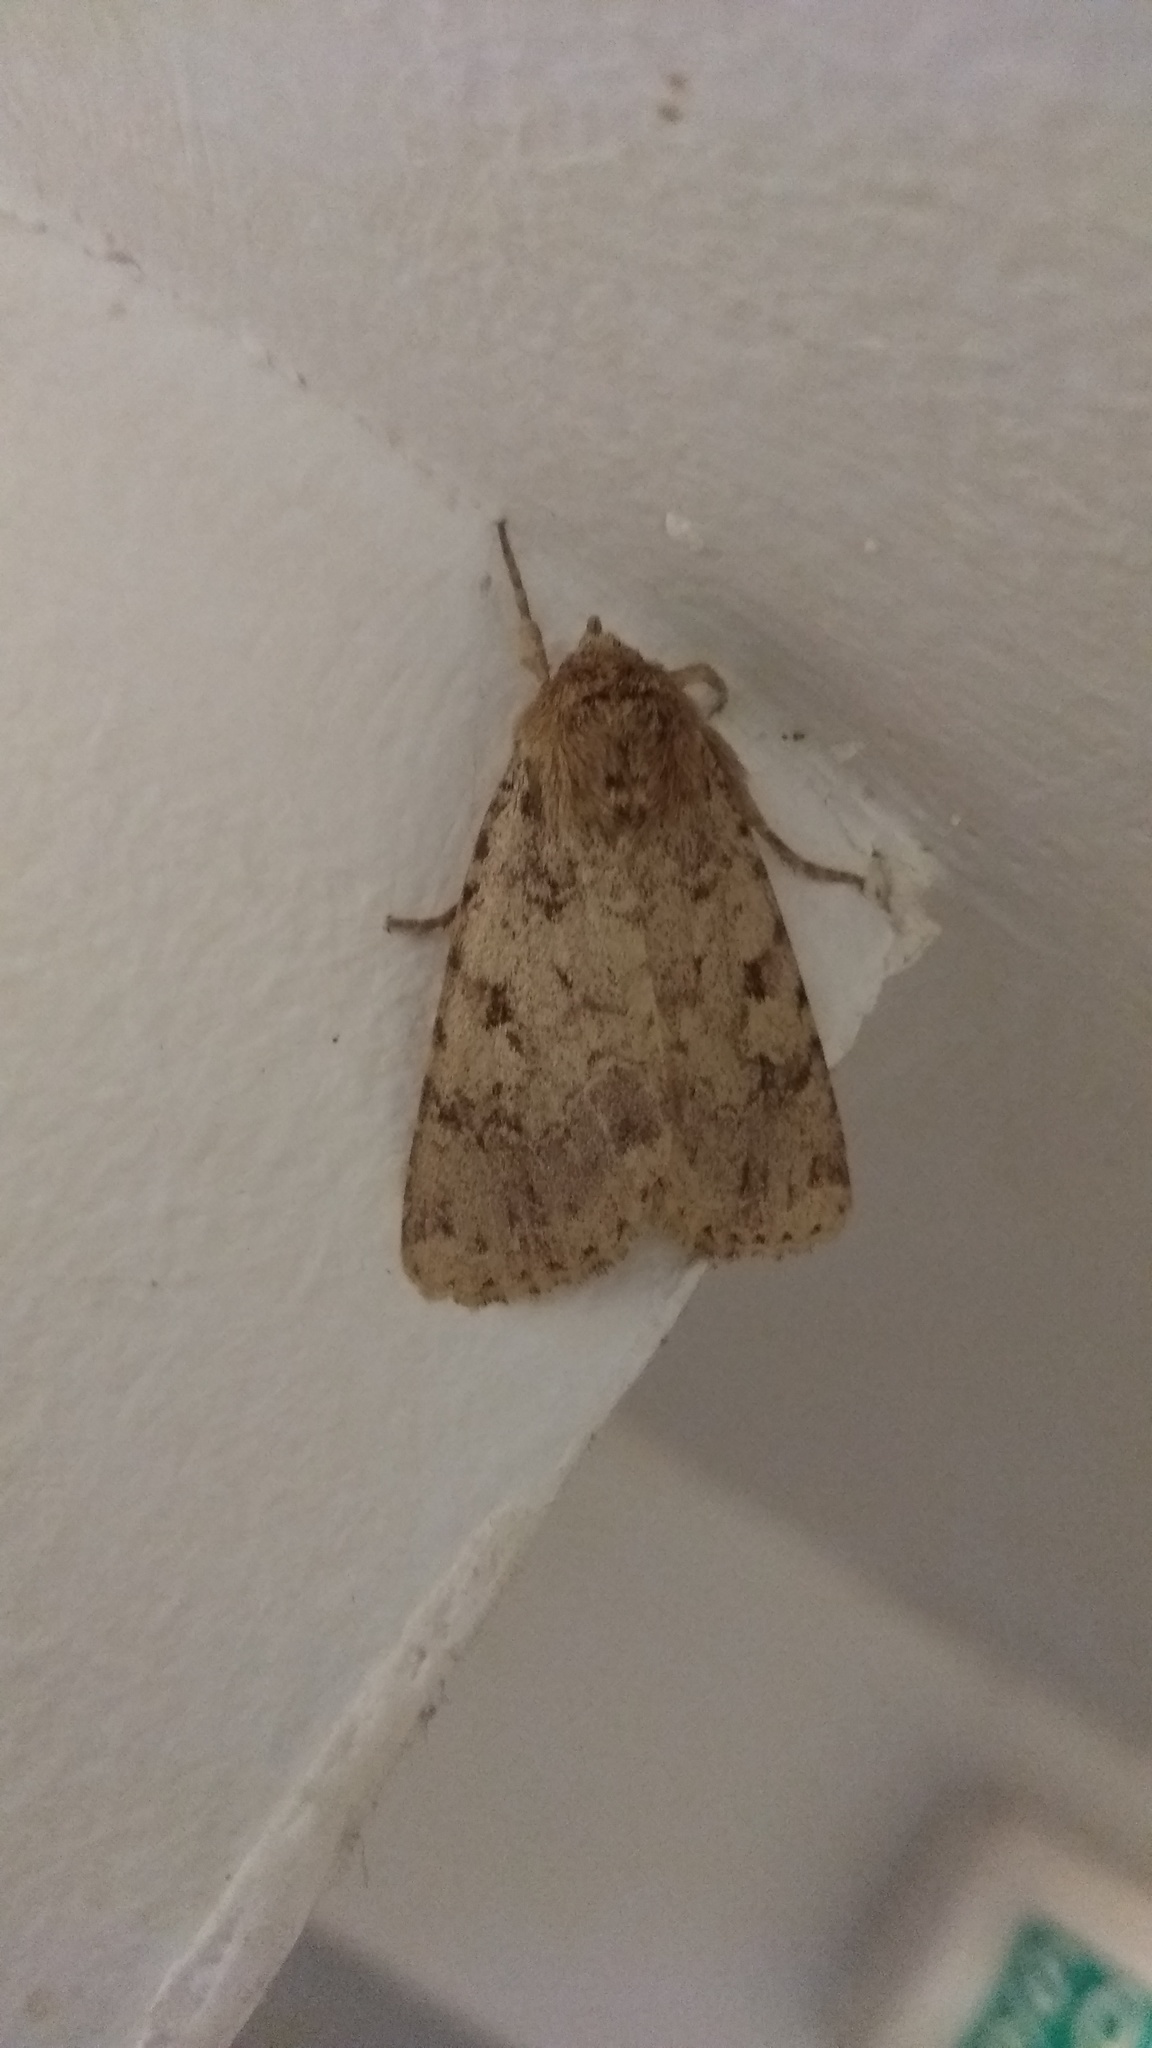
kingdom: Animalia
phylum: Arthropoda
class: Insecta
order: Lepidoptera
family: Noctuidae
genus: Amphipyra
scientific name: Amphipyra effusa
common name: Landguard ochre
